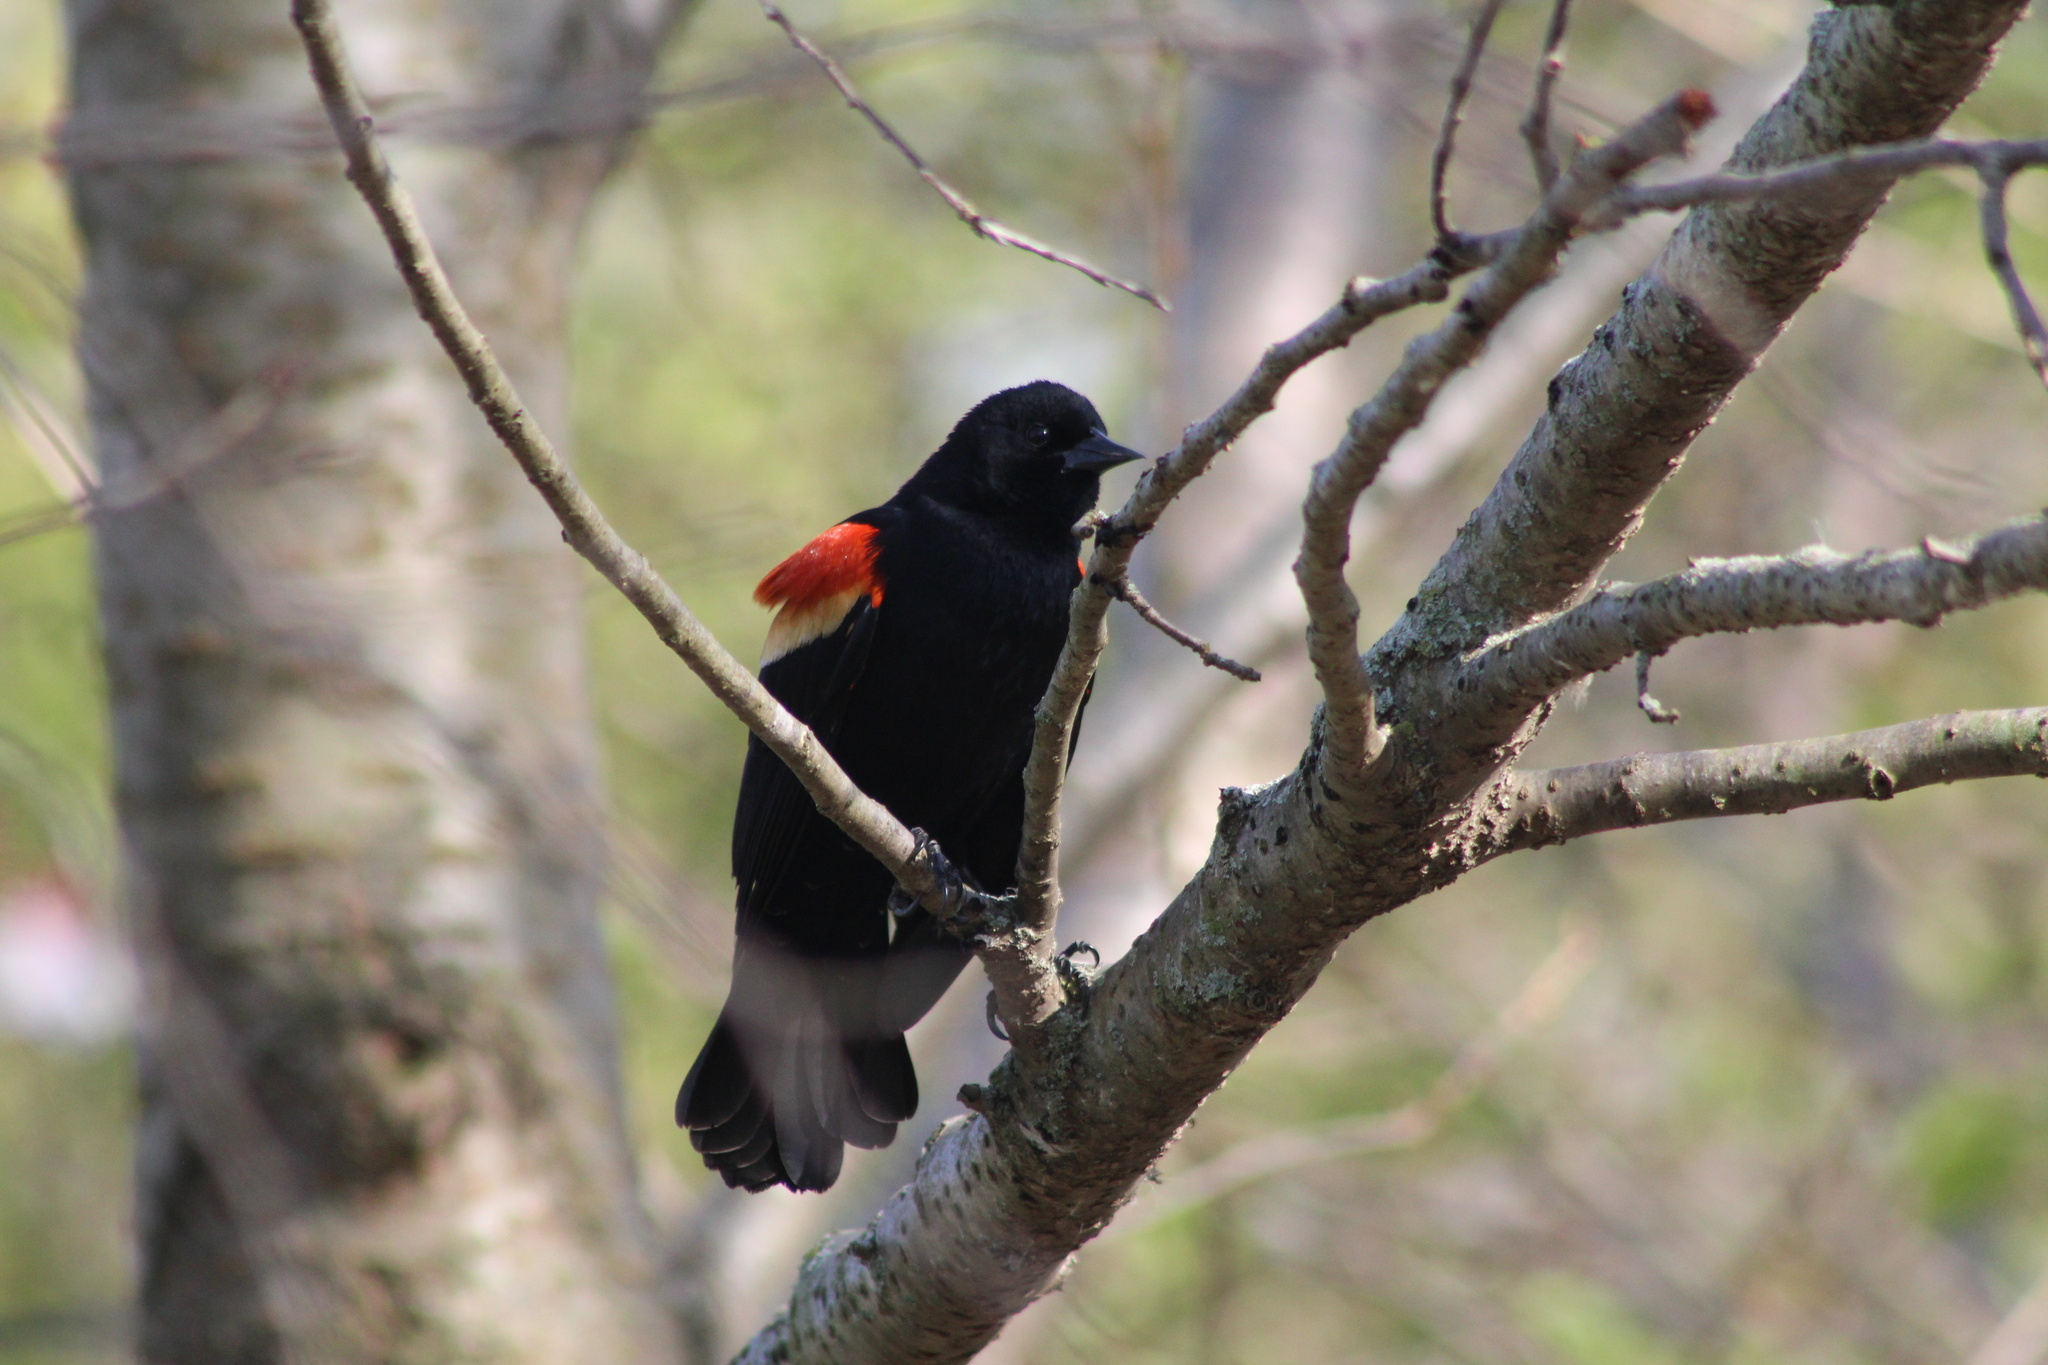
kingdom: Animalia
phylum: Chordata
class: Aves
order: Passeriformes
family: Icteridae
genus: Agelaius
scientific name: Agelaius phoeniceus
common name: Red-winged blackbird
